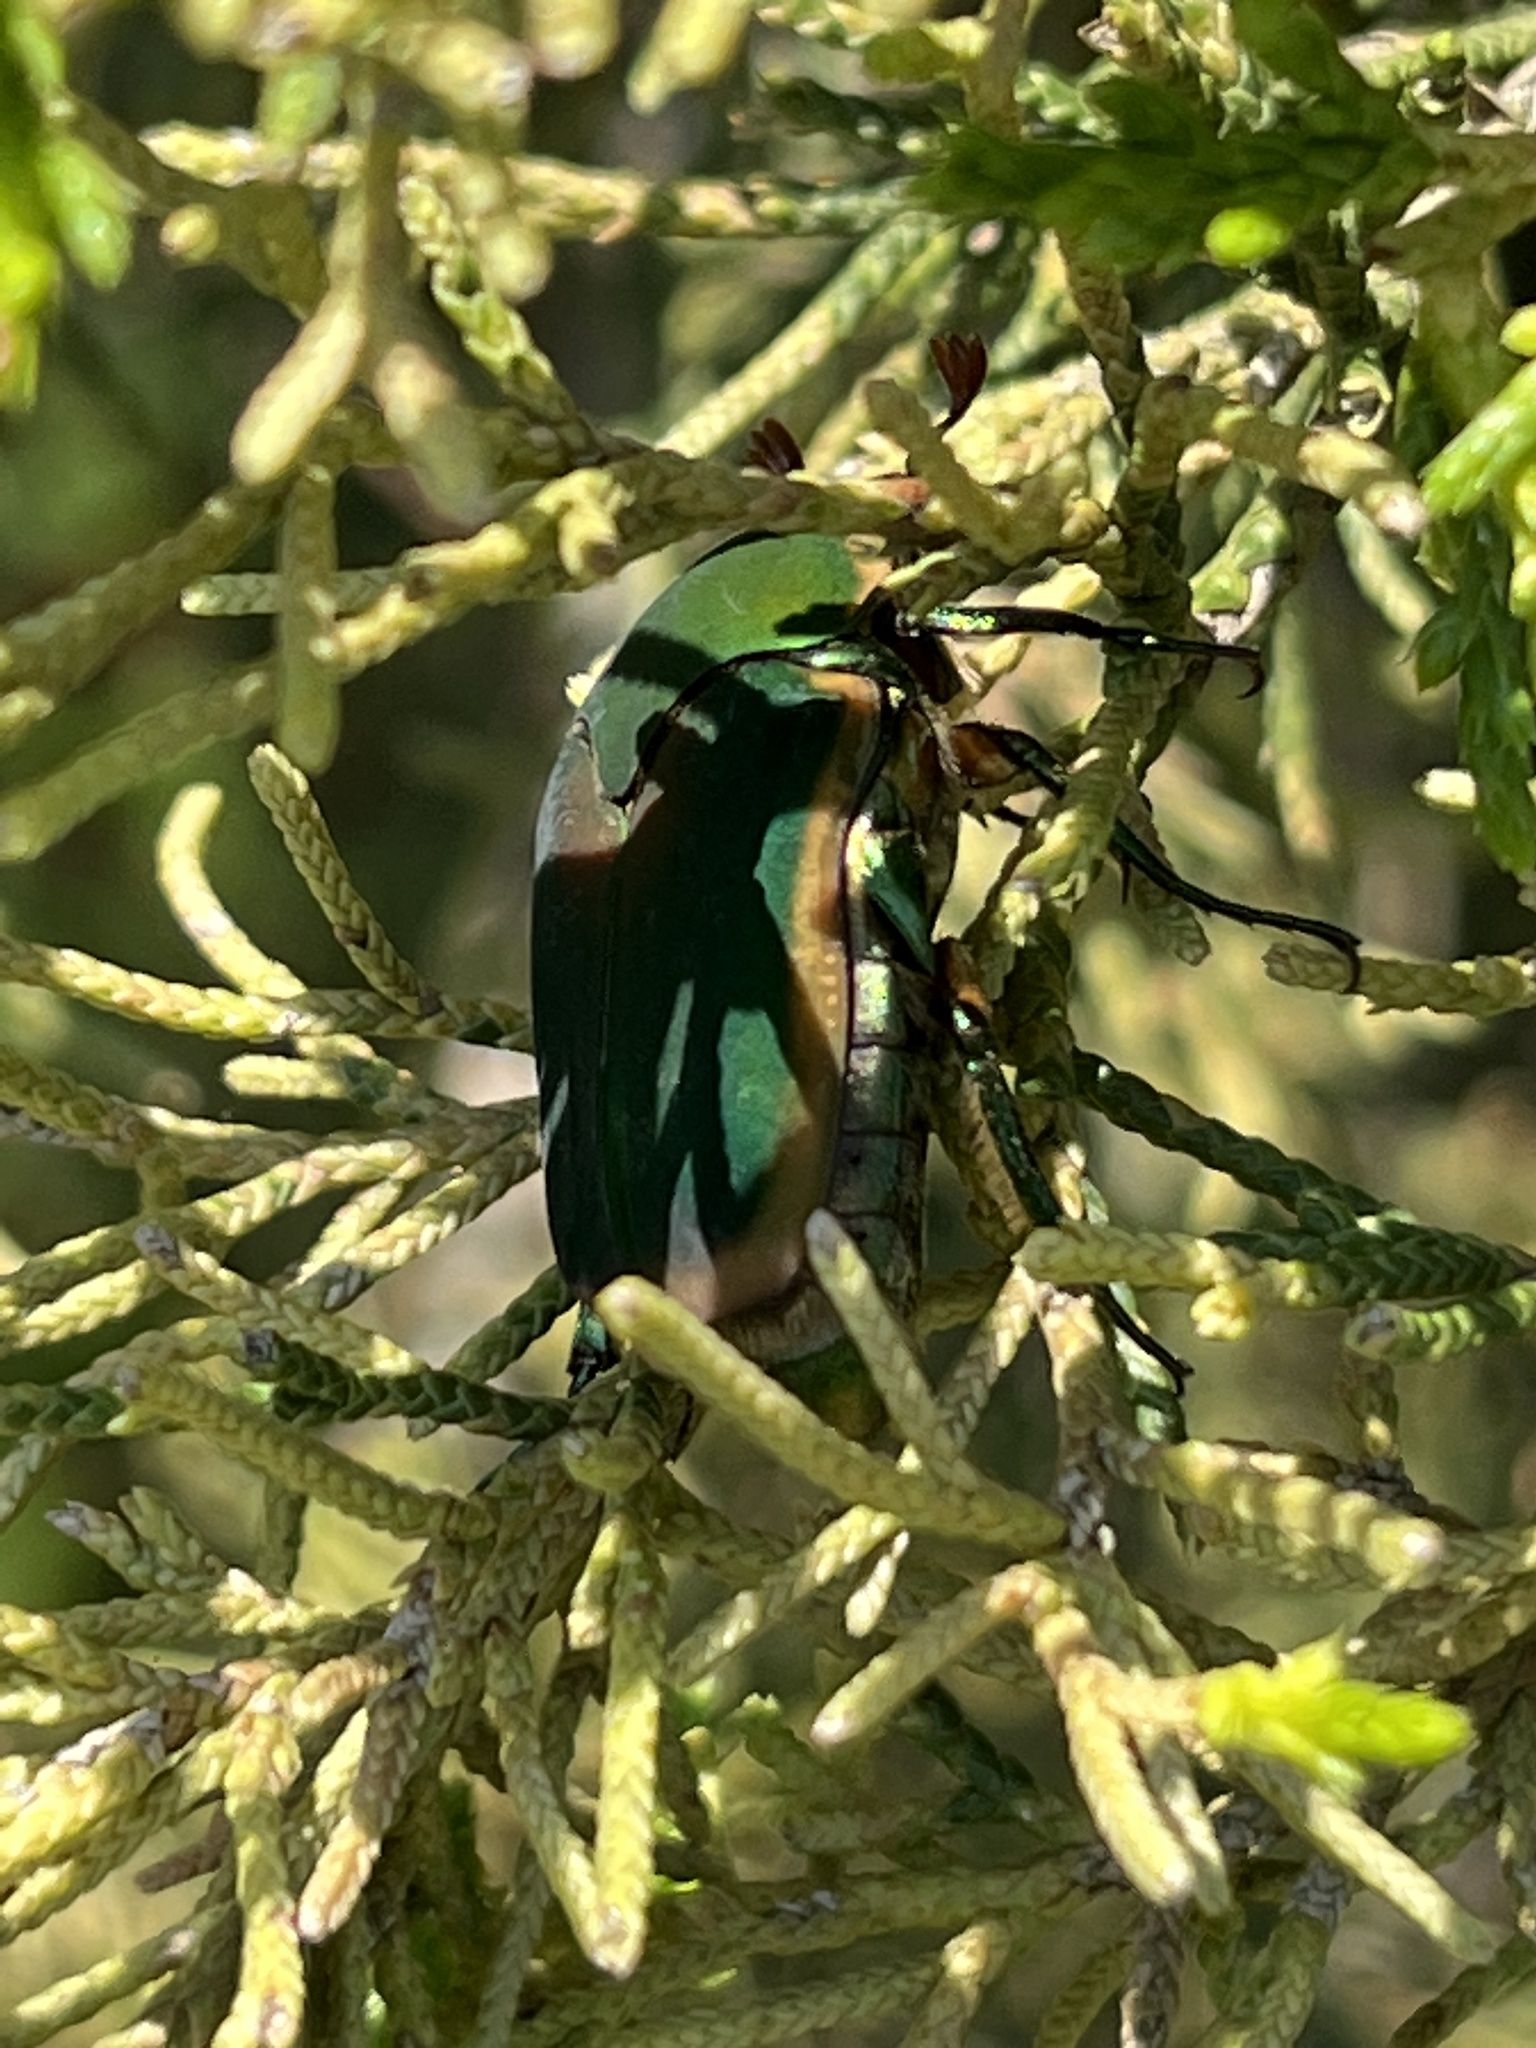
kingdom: Animalia
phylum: Arthropoda
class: Insecta
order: Coleoptera
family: Scarabaeidae
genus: Cotinis
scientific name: Cotinis nitida
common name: Common green june beetle
